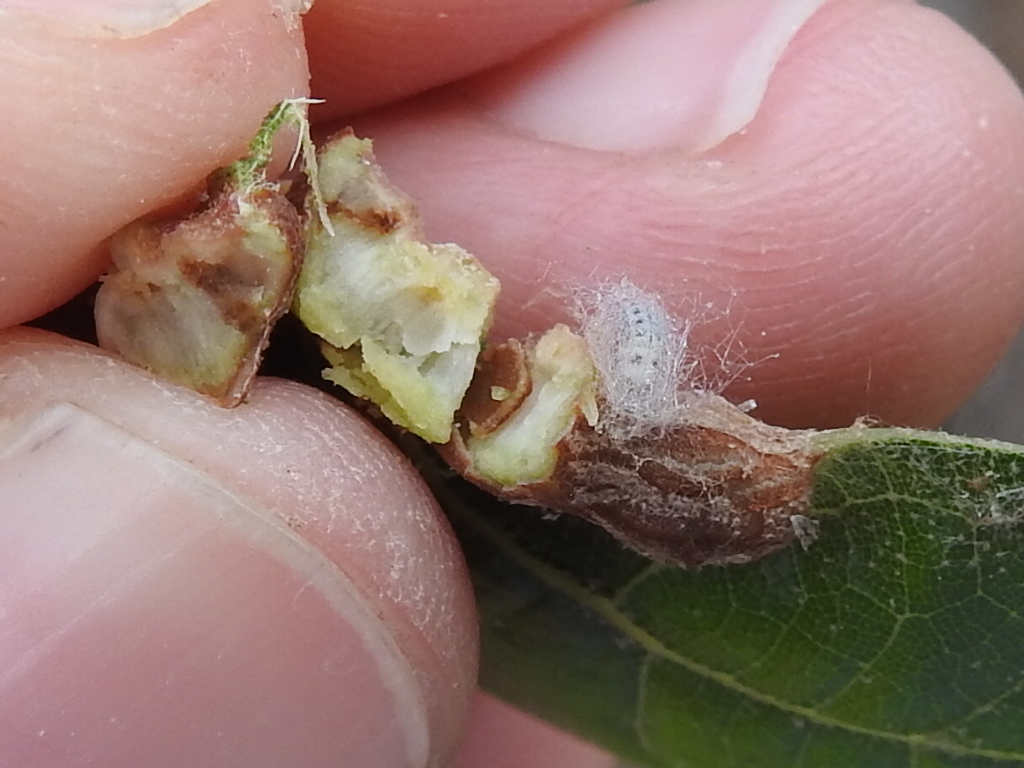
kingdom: Animalia
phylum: Arthropoda
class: Insecta
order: Diptera
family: Cecidomyiidae
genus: Polystepha
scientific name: Polystepha pilulae
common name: Oak leaf gall midge
